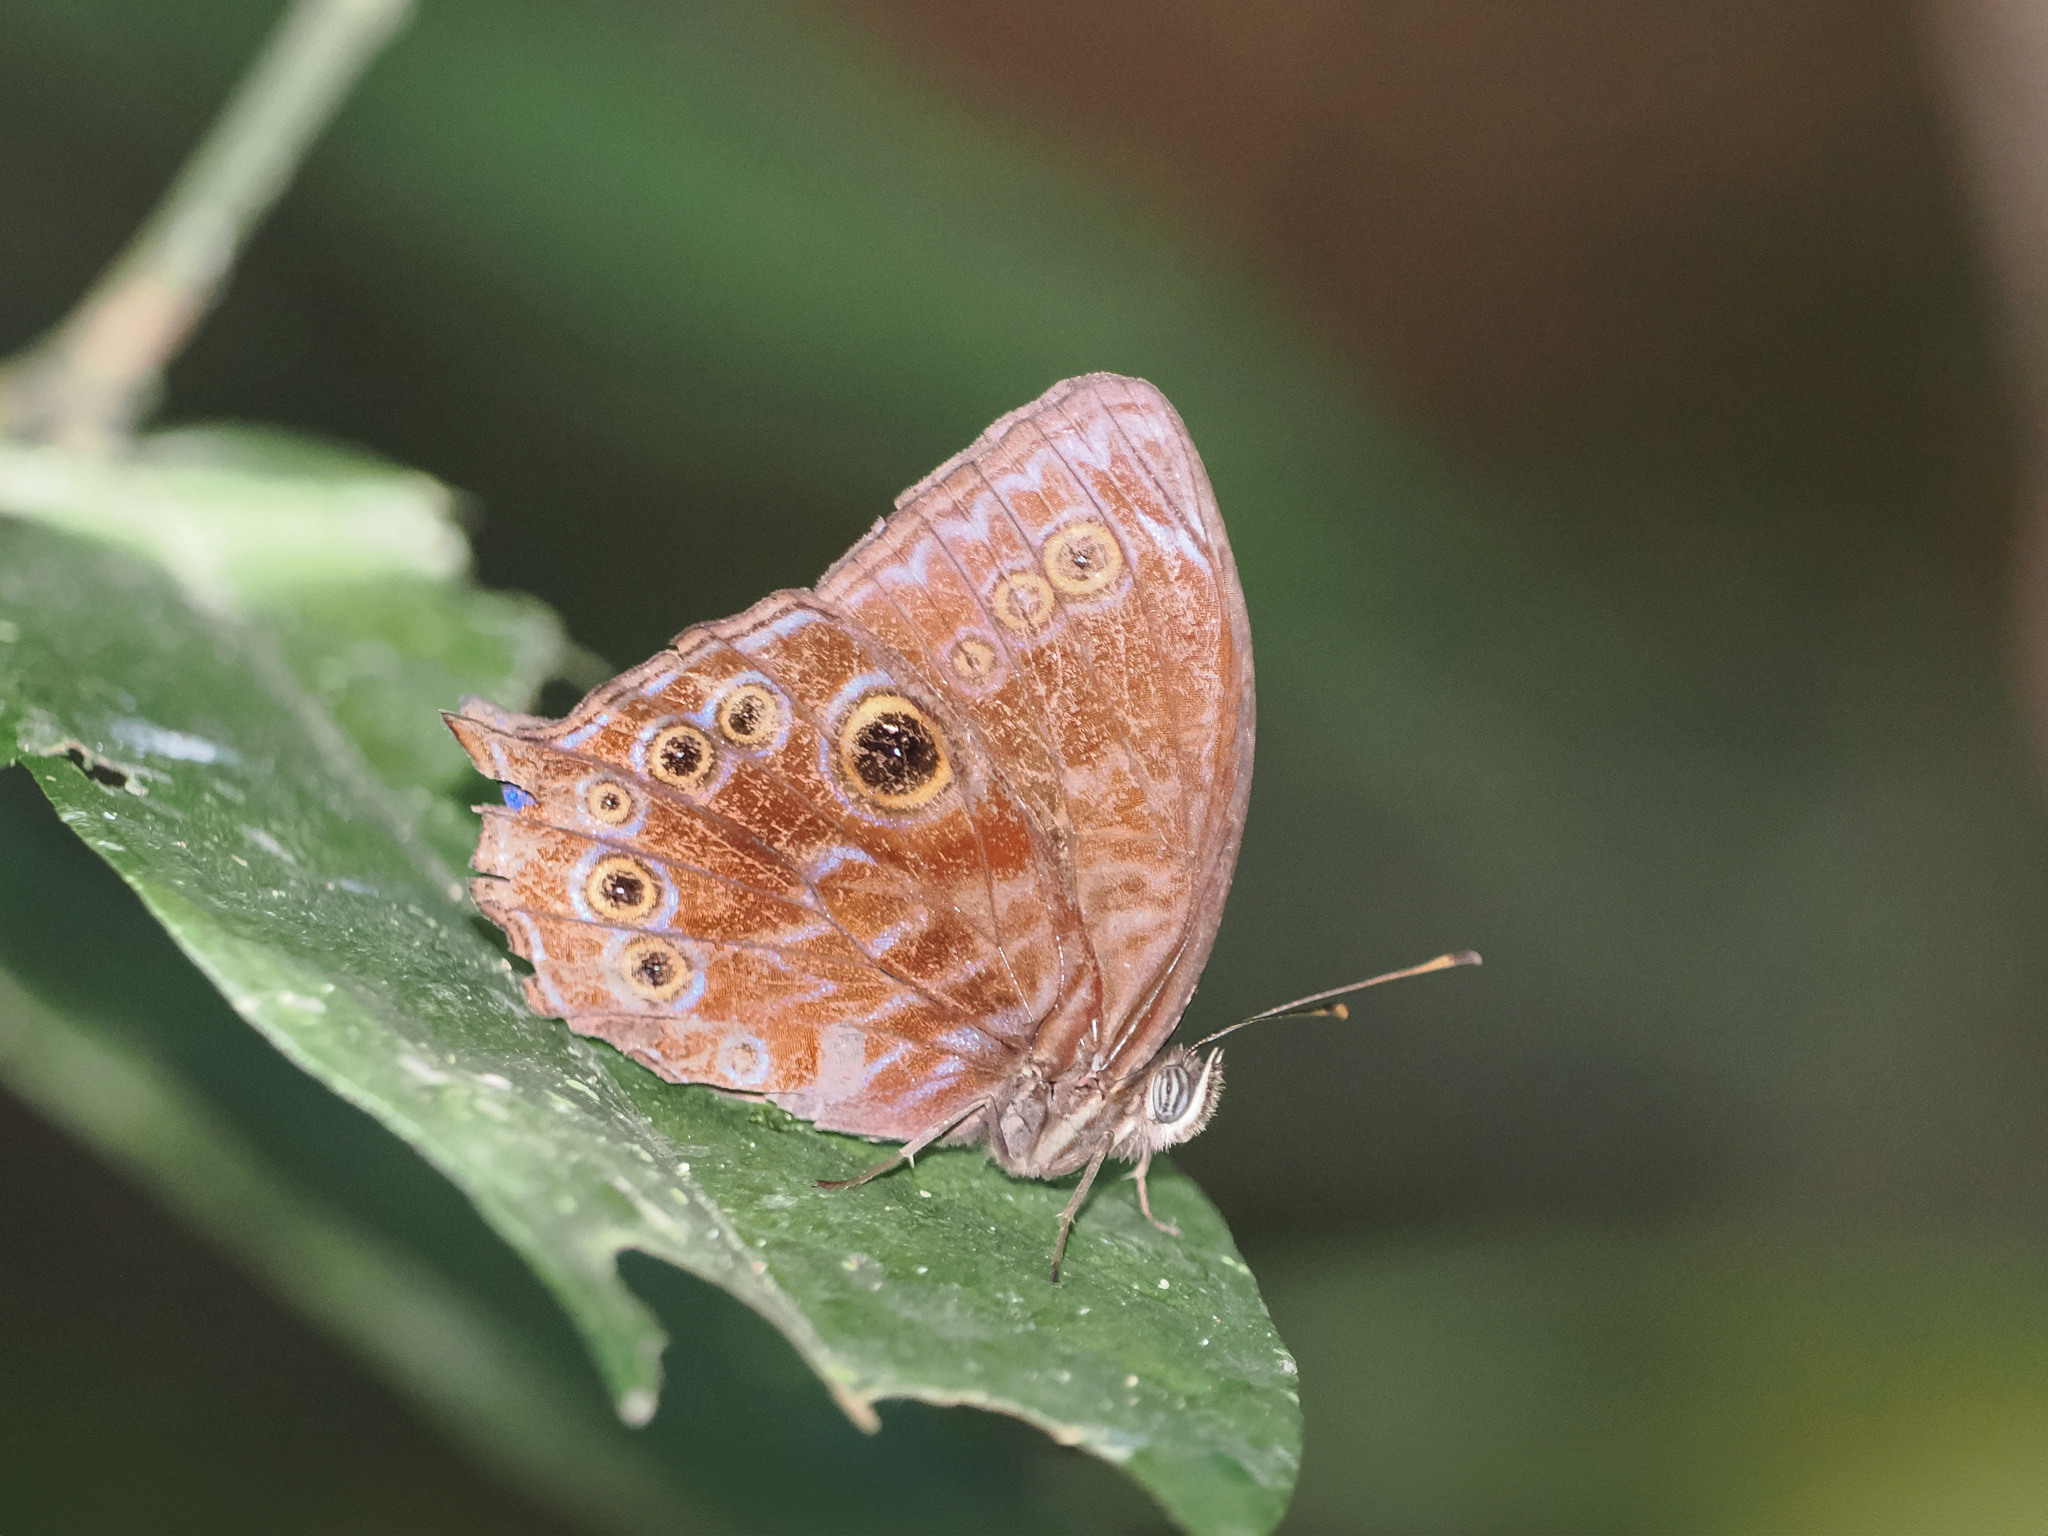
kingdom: Animalia
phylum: Arthropoda
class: Insecta
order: Lepidoptera
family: Nymphalidae
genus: Ptychandra
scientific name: Ptychandra lorquinii
